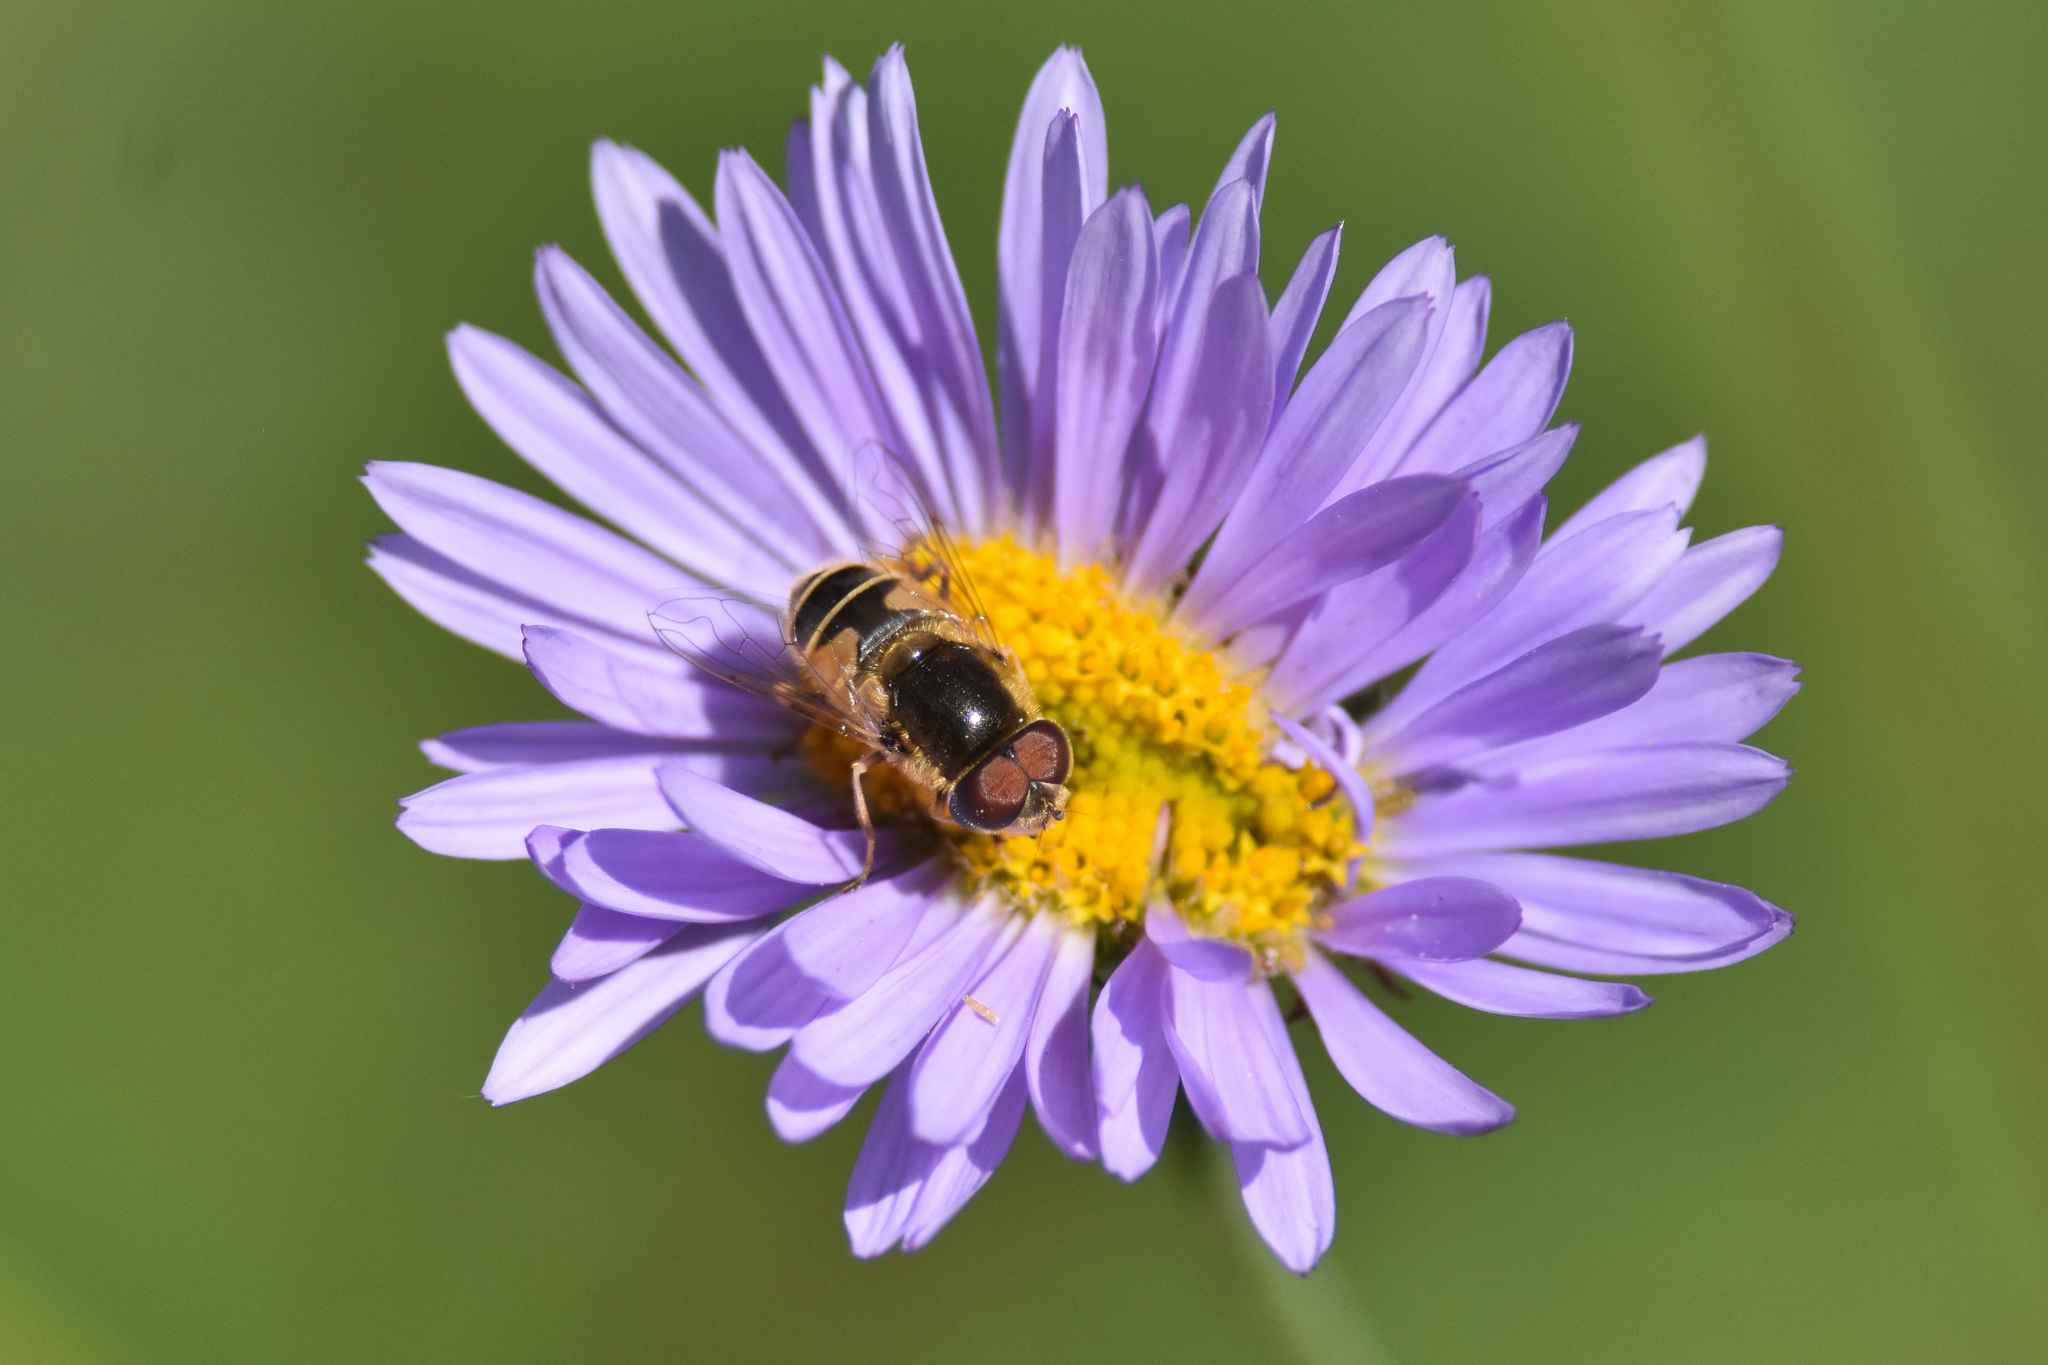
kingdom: Animalia
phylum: Arthropoda
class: Insecta
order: Diptera
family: Syrphidae
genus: Eristalis
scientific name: Eristalis hirta
